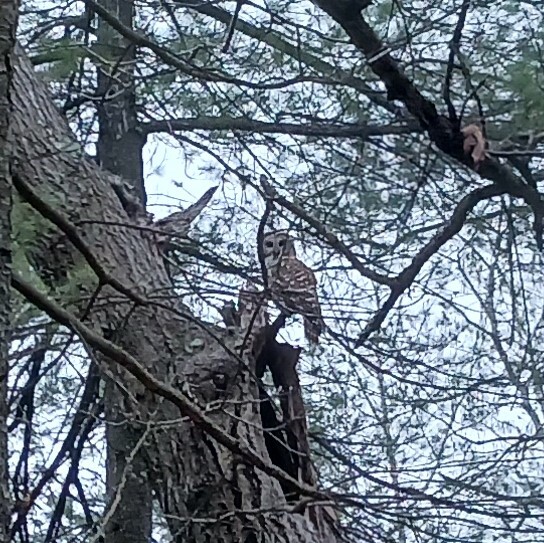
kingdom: Animalia
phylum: Chordata
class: Aves
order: Strigiformes
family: Strigidae
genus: Strix
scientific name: Strix varia
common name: Barred owl
